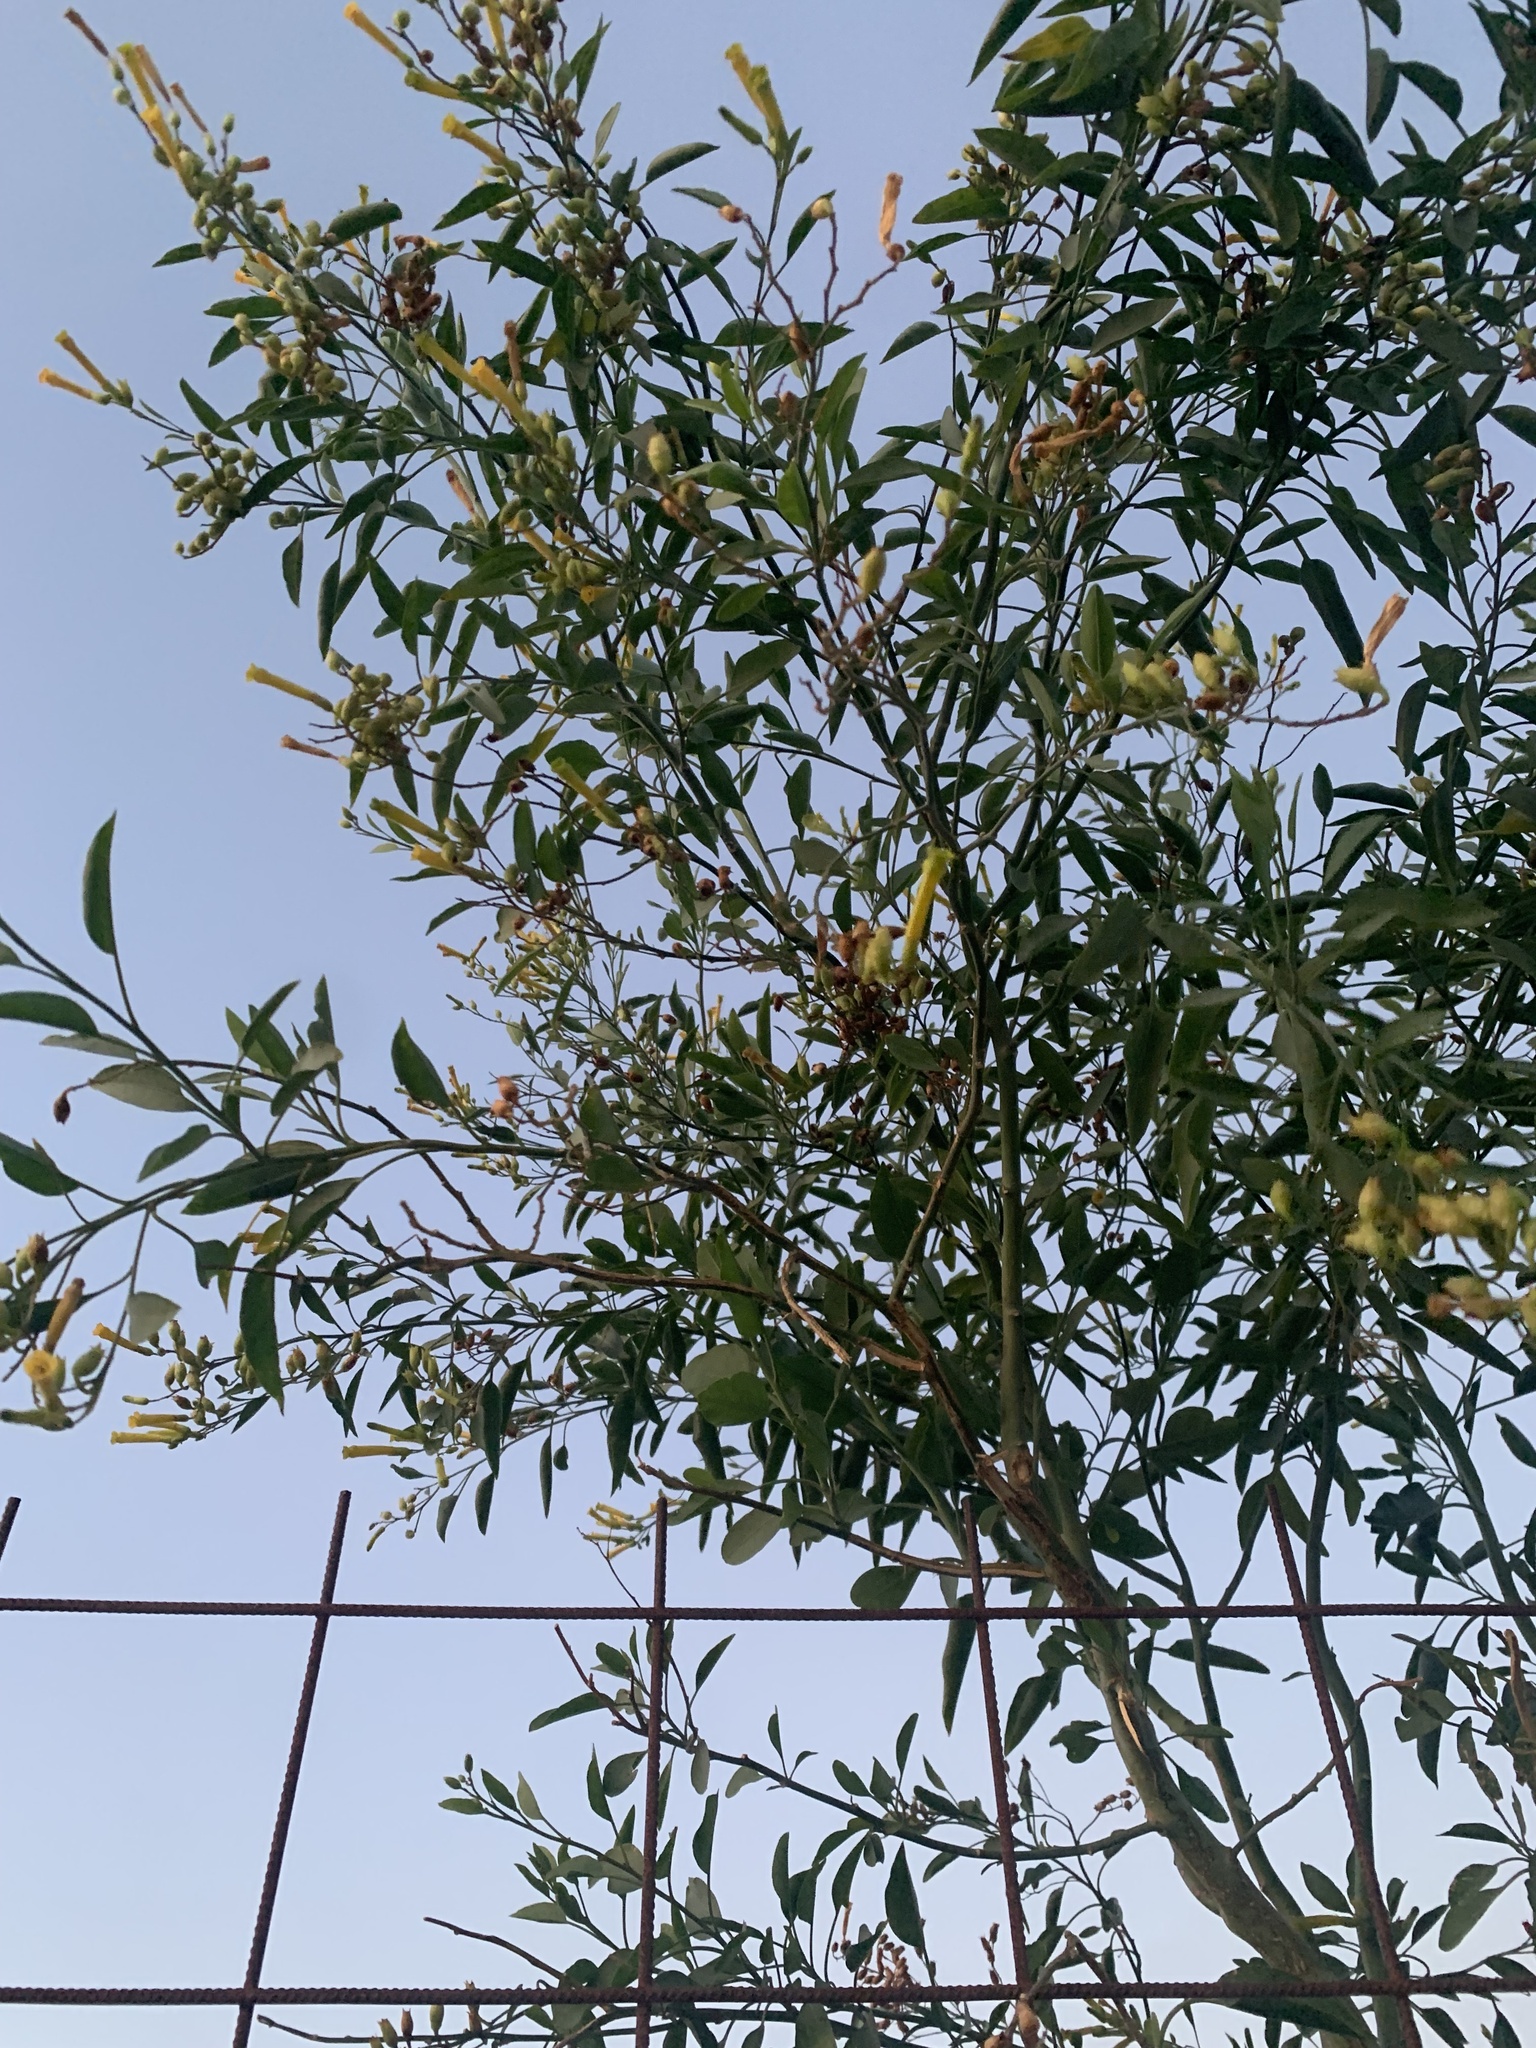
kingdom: Plantae
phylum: Tracheophyta
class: Magnoliopsida
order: Solanales
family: Solanaceae
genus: Nicotiana
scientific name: Nicotiana glauca
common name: Tree tobacco
